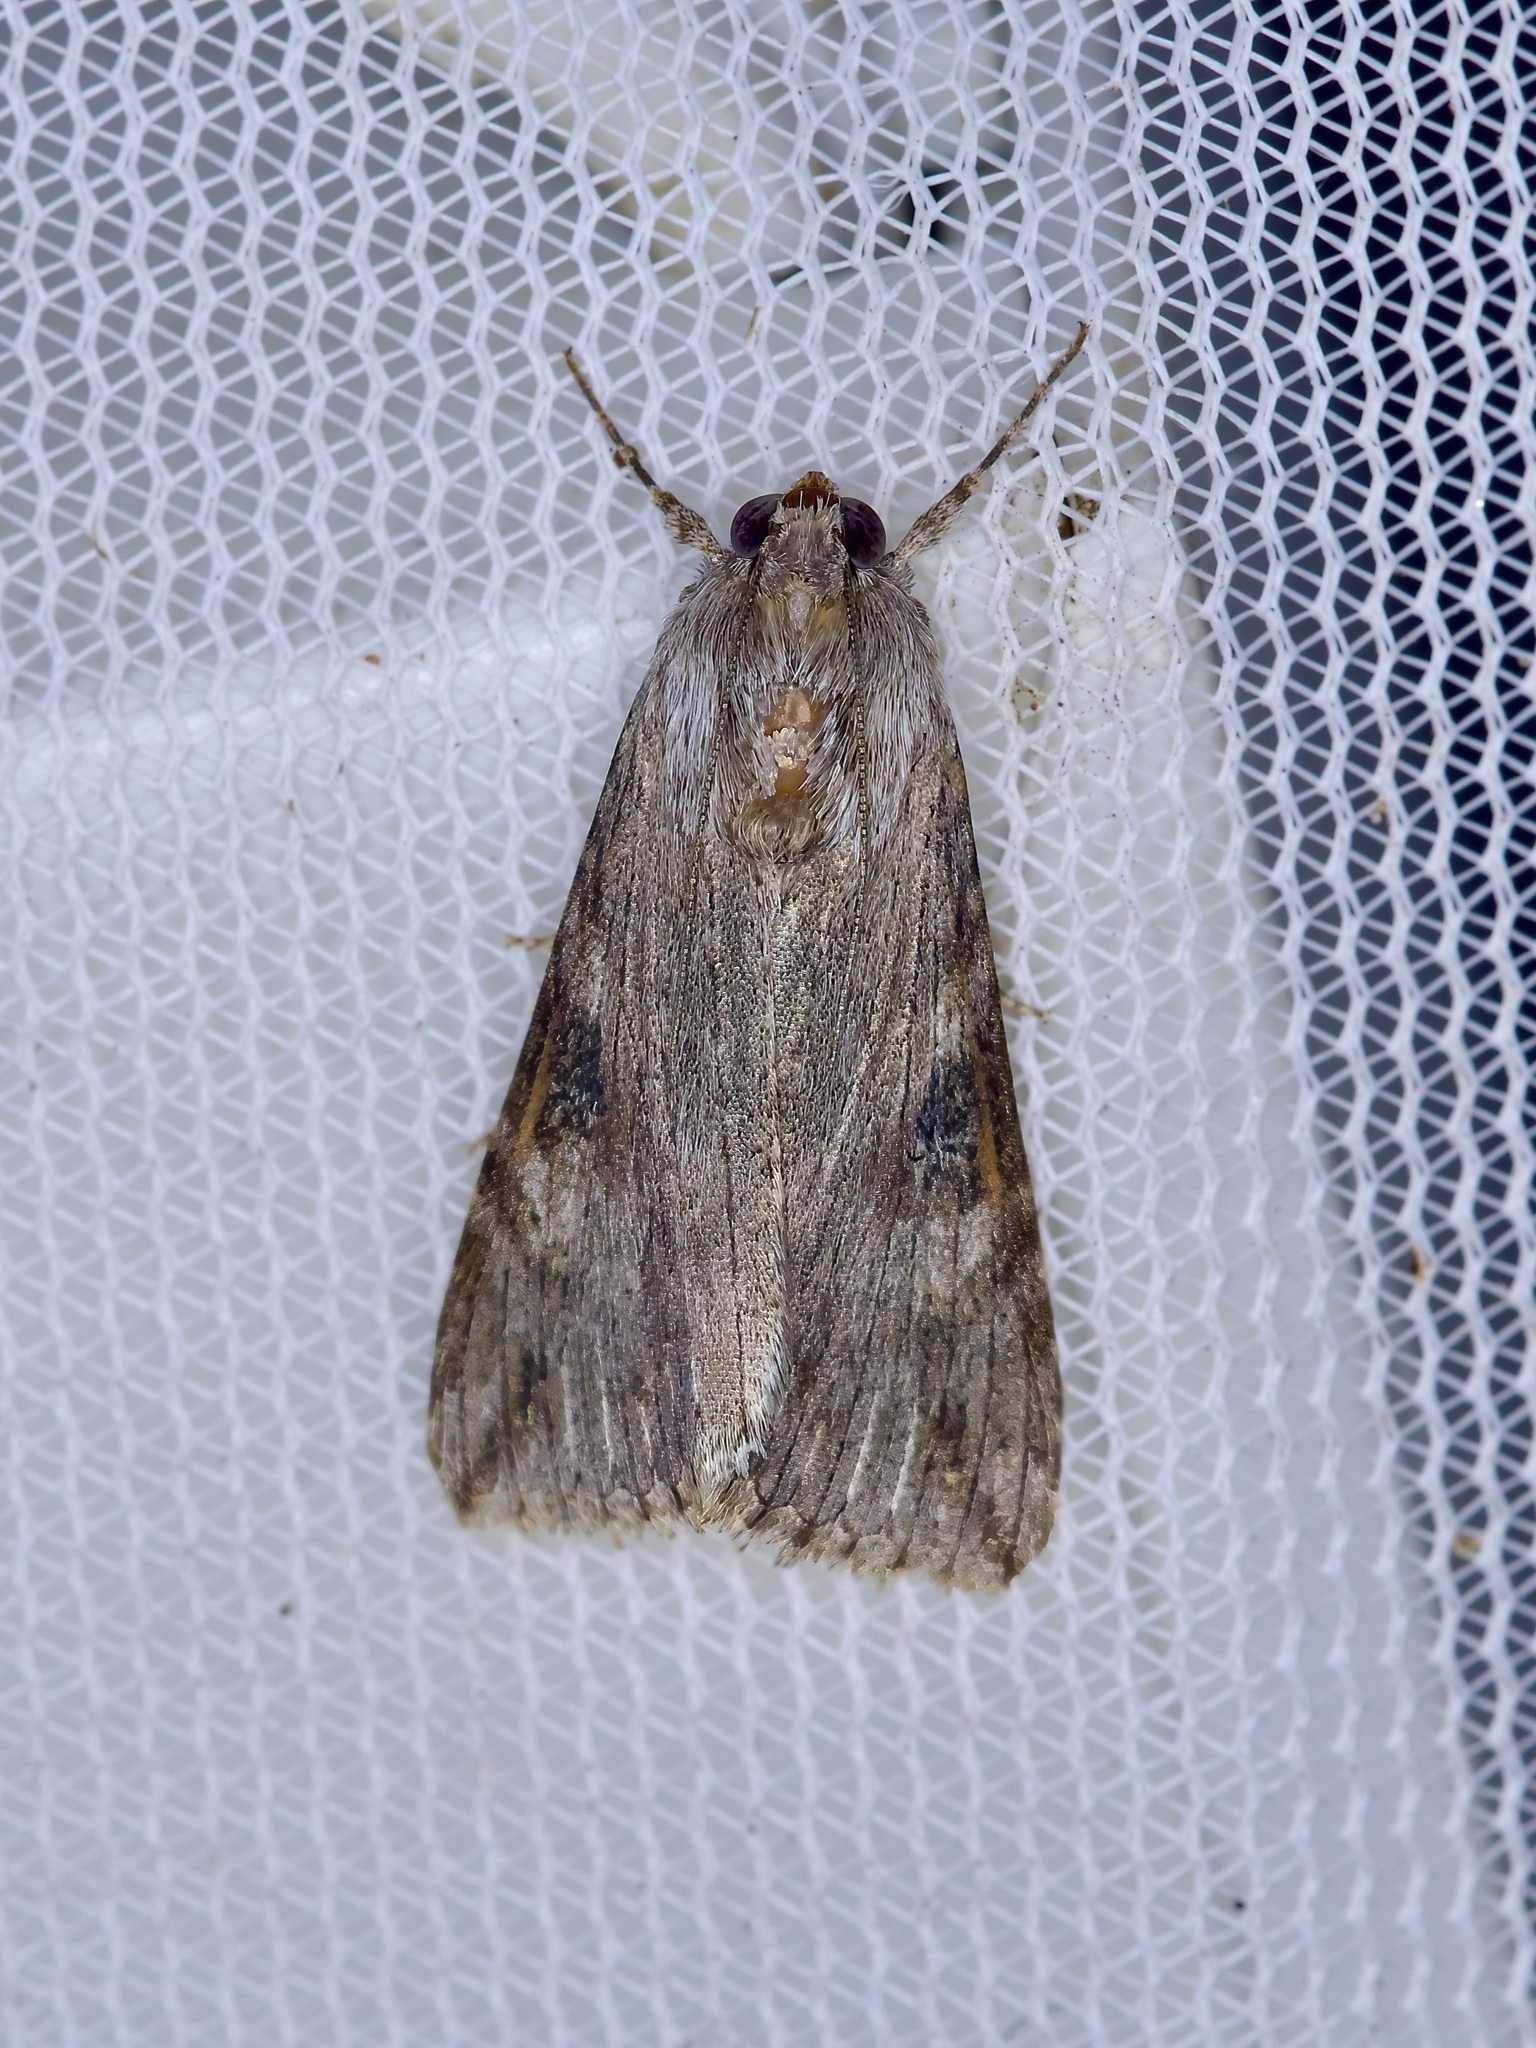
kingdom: Animalia
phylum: Arthropoda
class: Insecta
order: Lepidoptera
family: Erebidae
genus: Melipotis
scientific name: Melipotis jucunda
